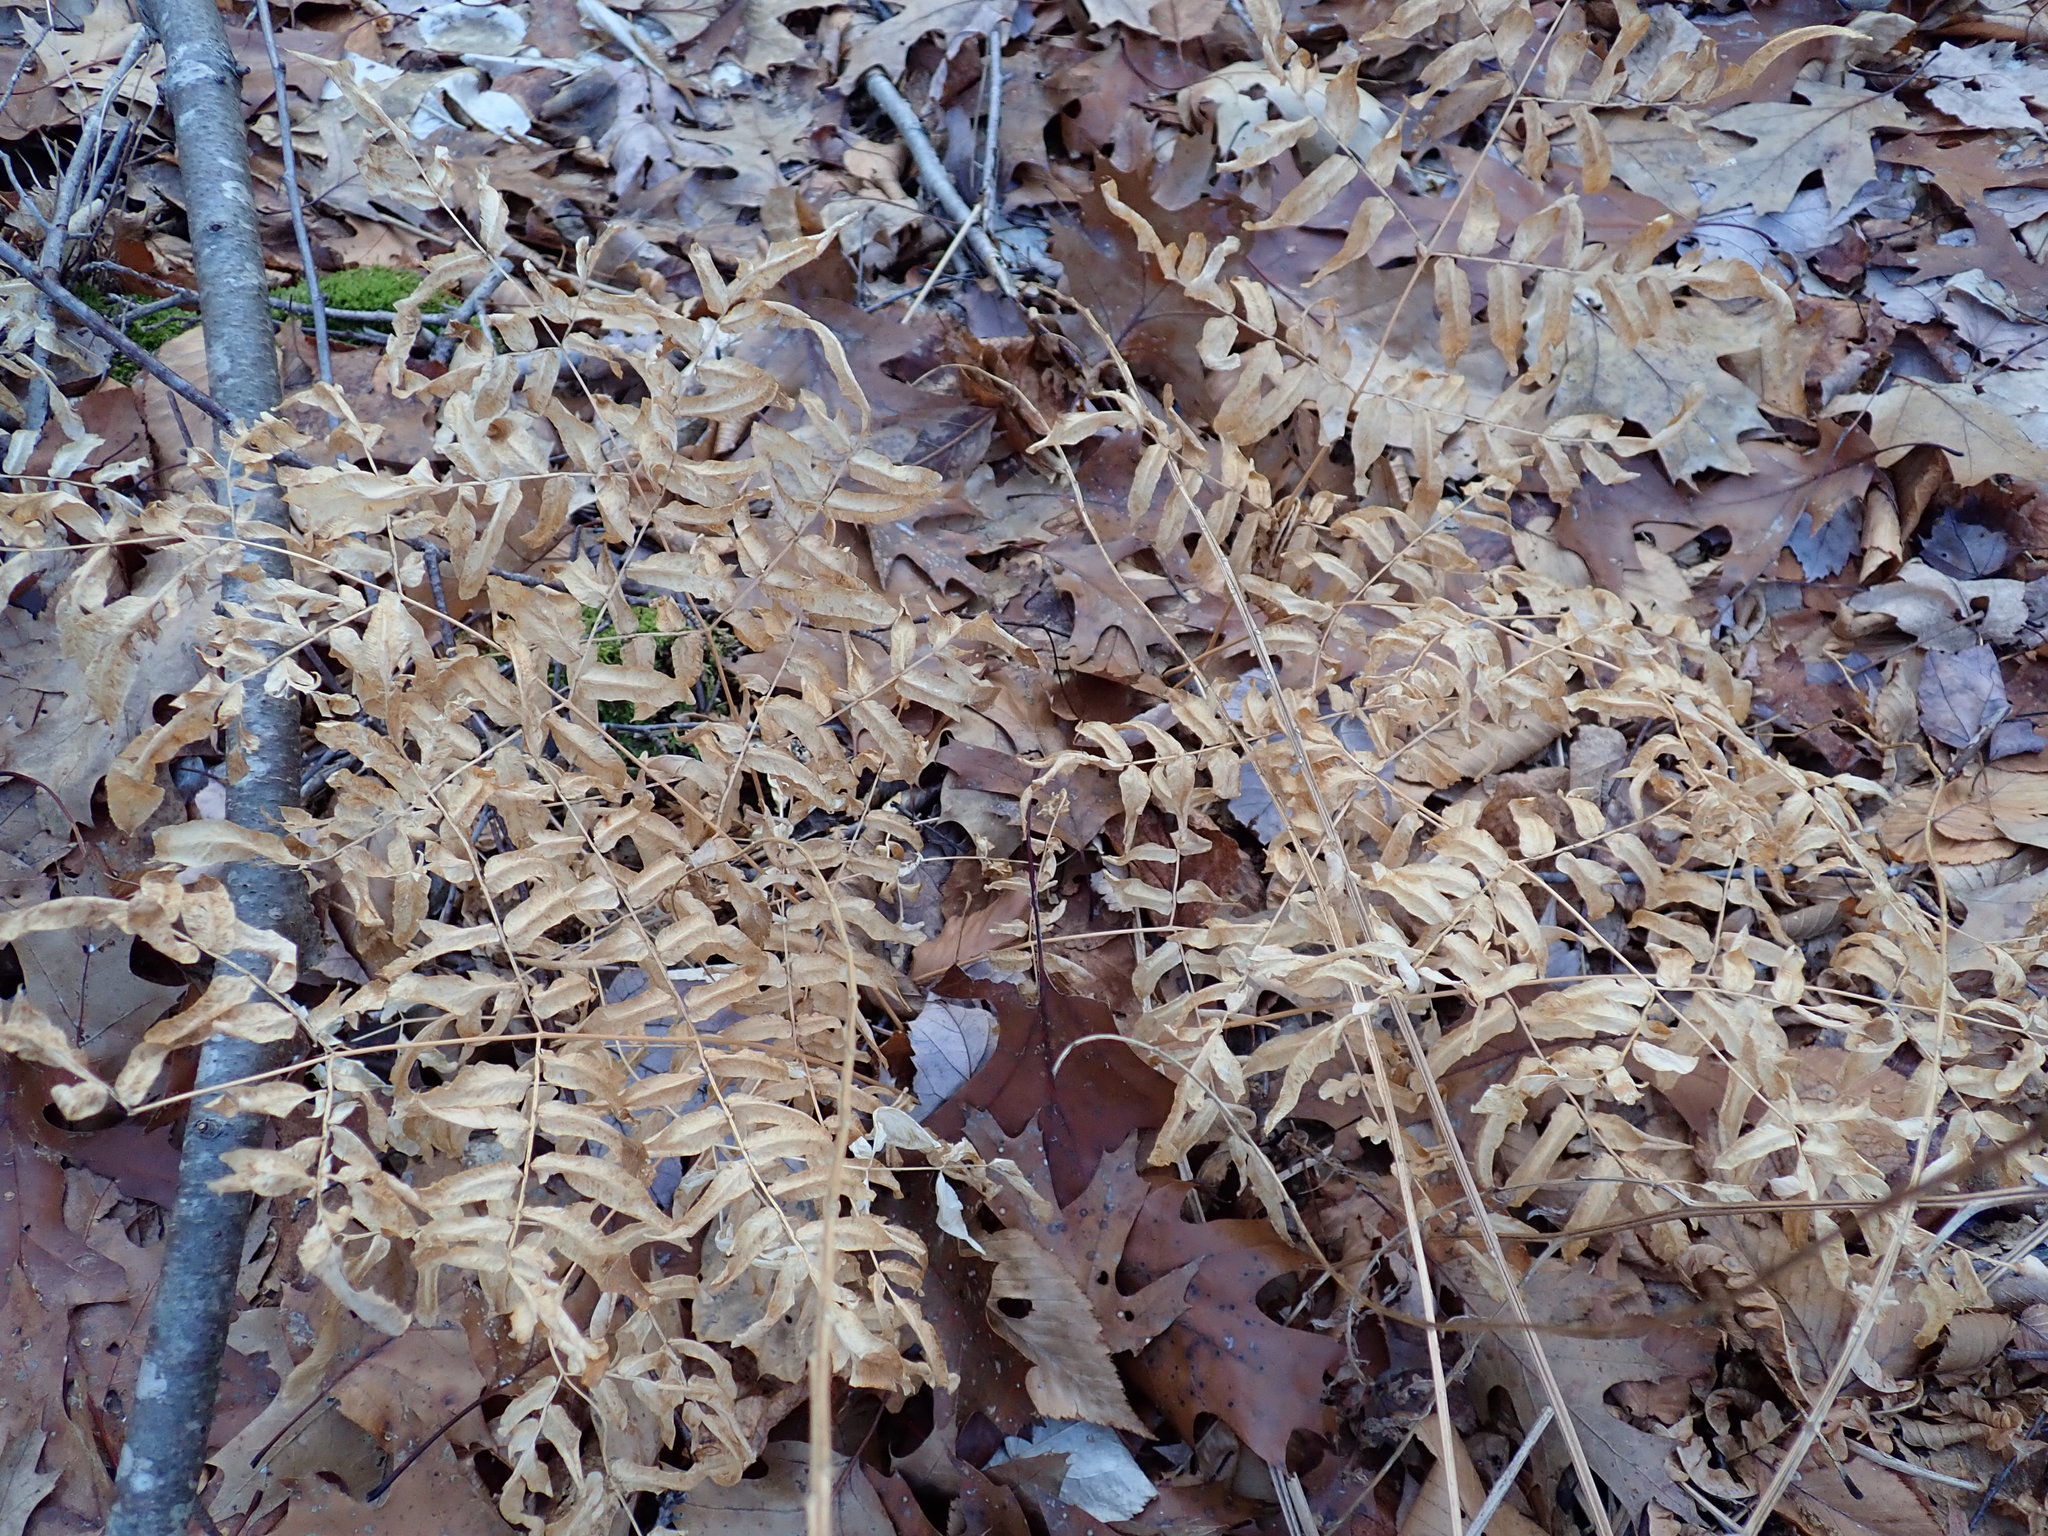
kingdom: Plantae
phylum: Tracheophyta
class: Polypodiopsida
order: Osmundales
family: Osmundaceae
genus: Osmunda
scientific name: Osmunda spectabilis
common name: American royal fern
